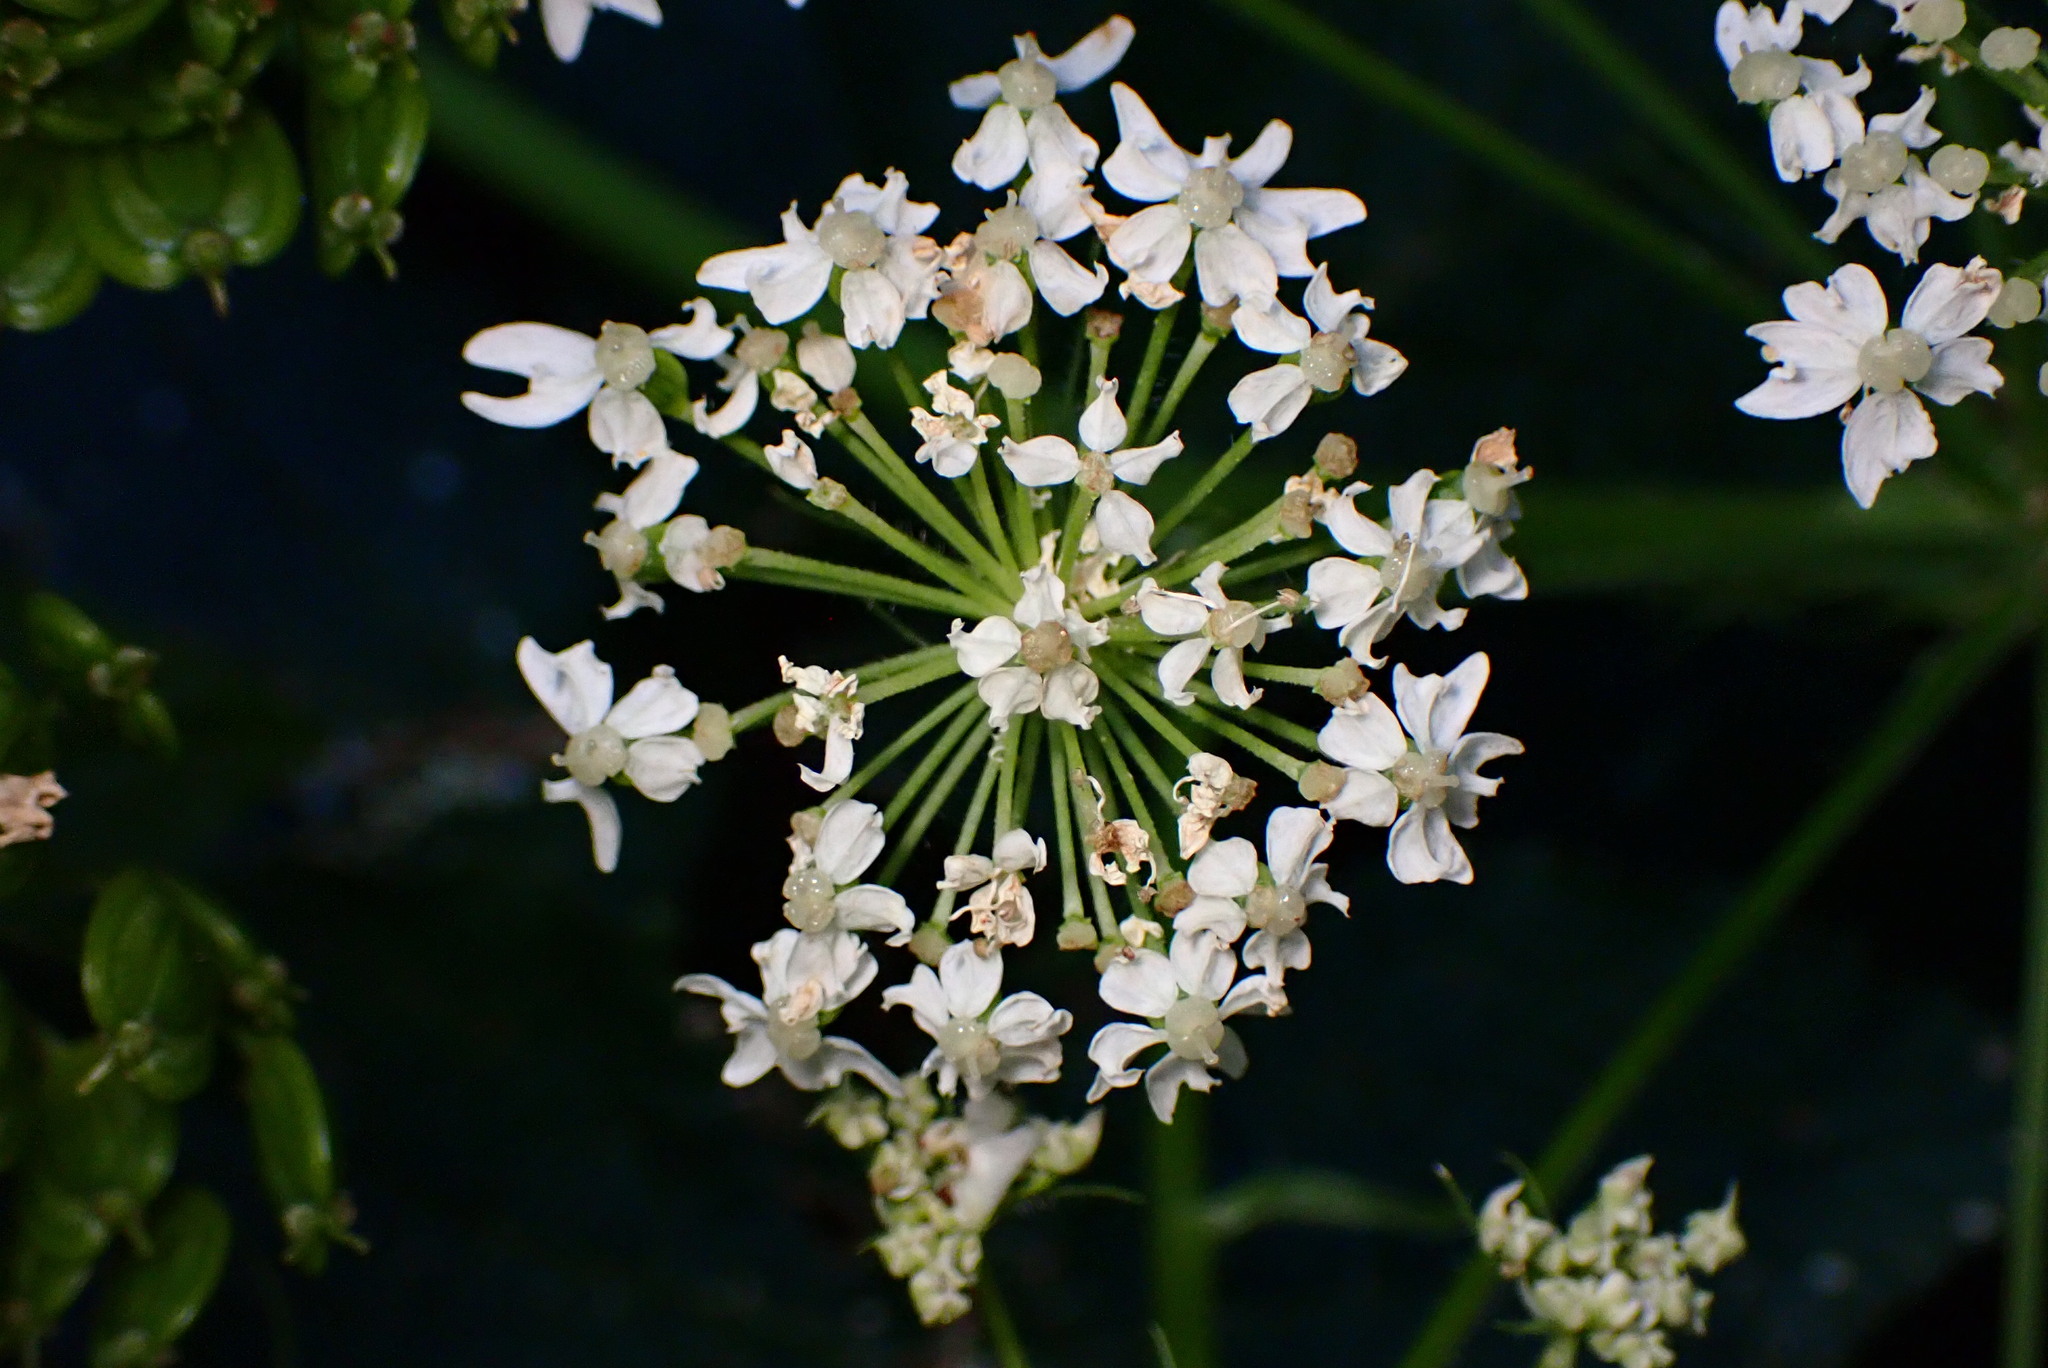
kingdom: Plantae
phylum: Tracheophyta
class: Magnoliopsida
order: Apiales
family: Apiaceae
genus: Heracleum
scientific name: Heracleum maximum
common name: American cow parsnip
